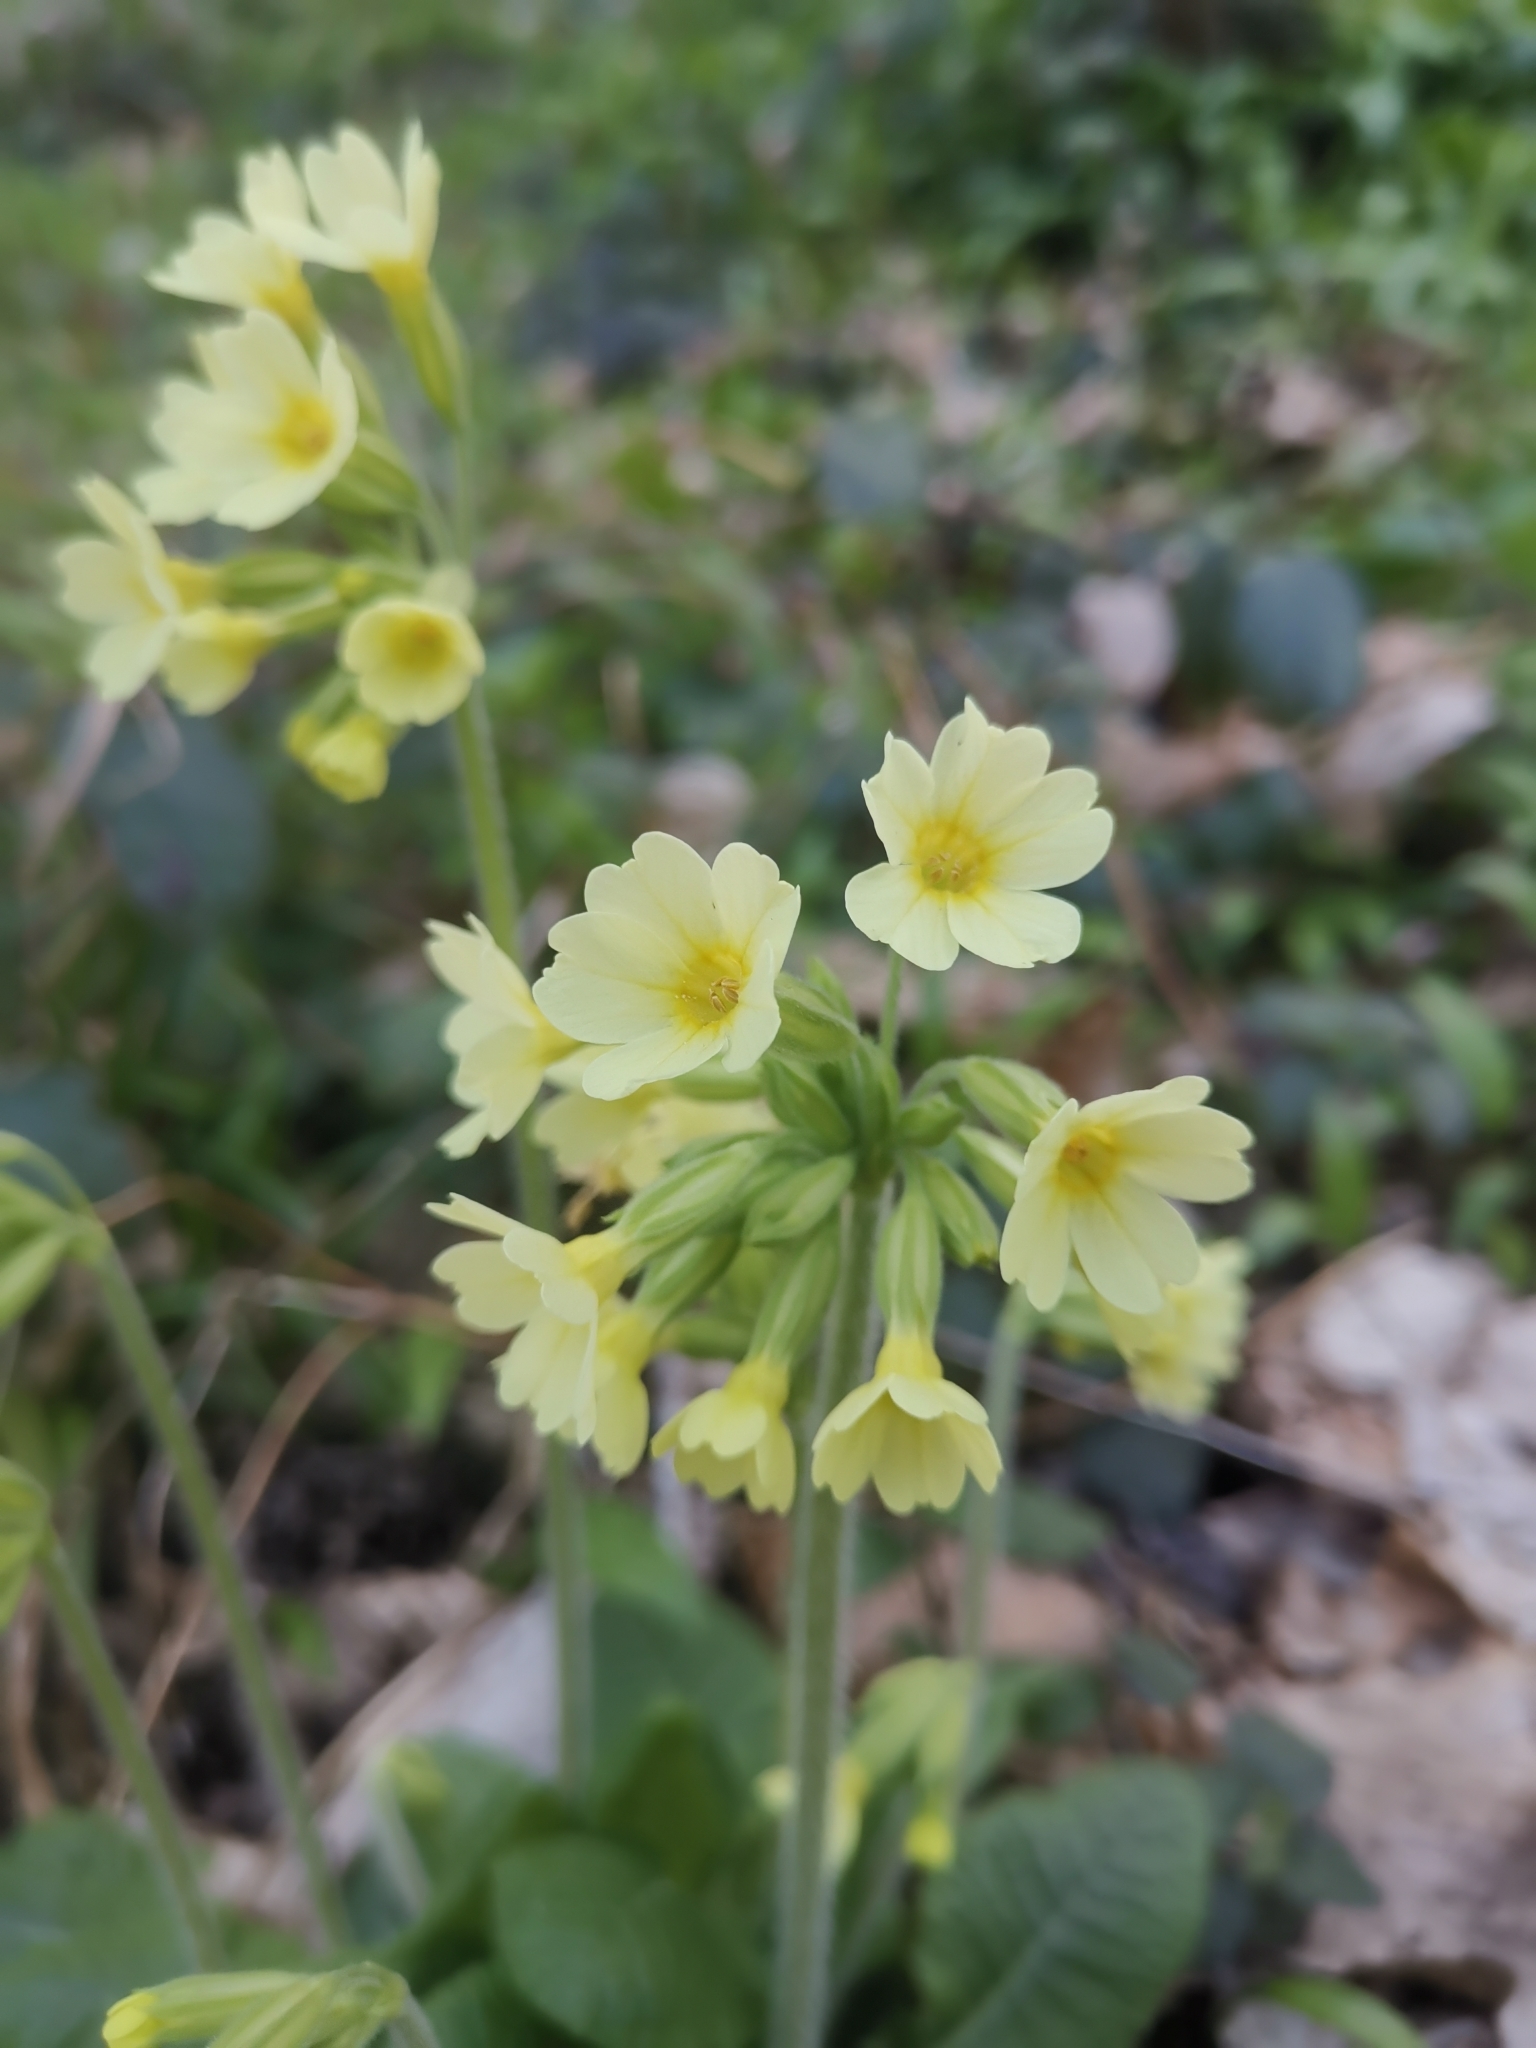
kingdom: Plantae
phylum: Tracheophyta
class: Magnoliopsida
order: Ericales
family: Primulaceae
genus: Primula
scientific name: Primula elatior
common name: Oxlip
